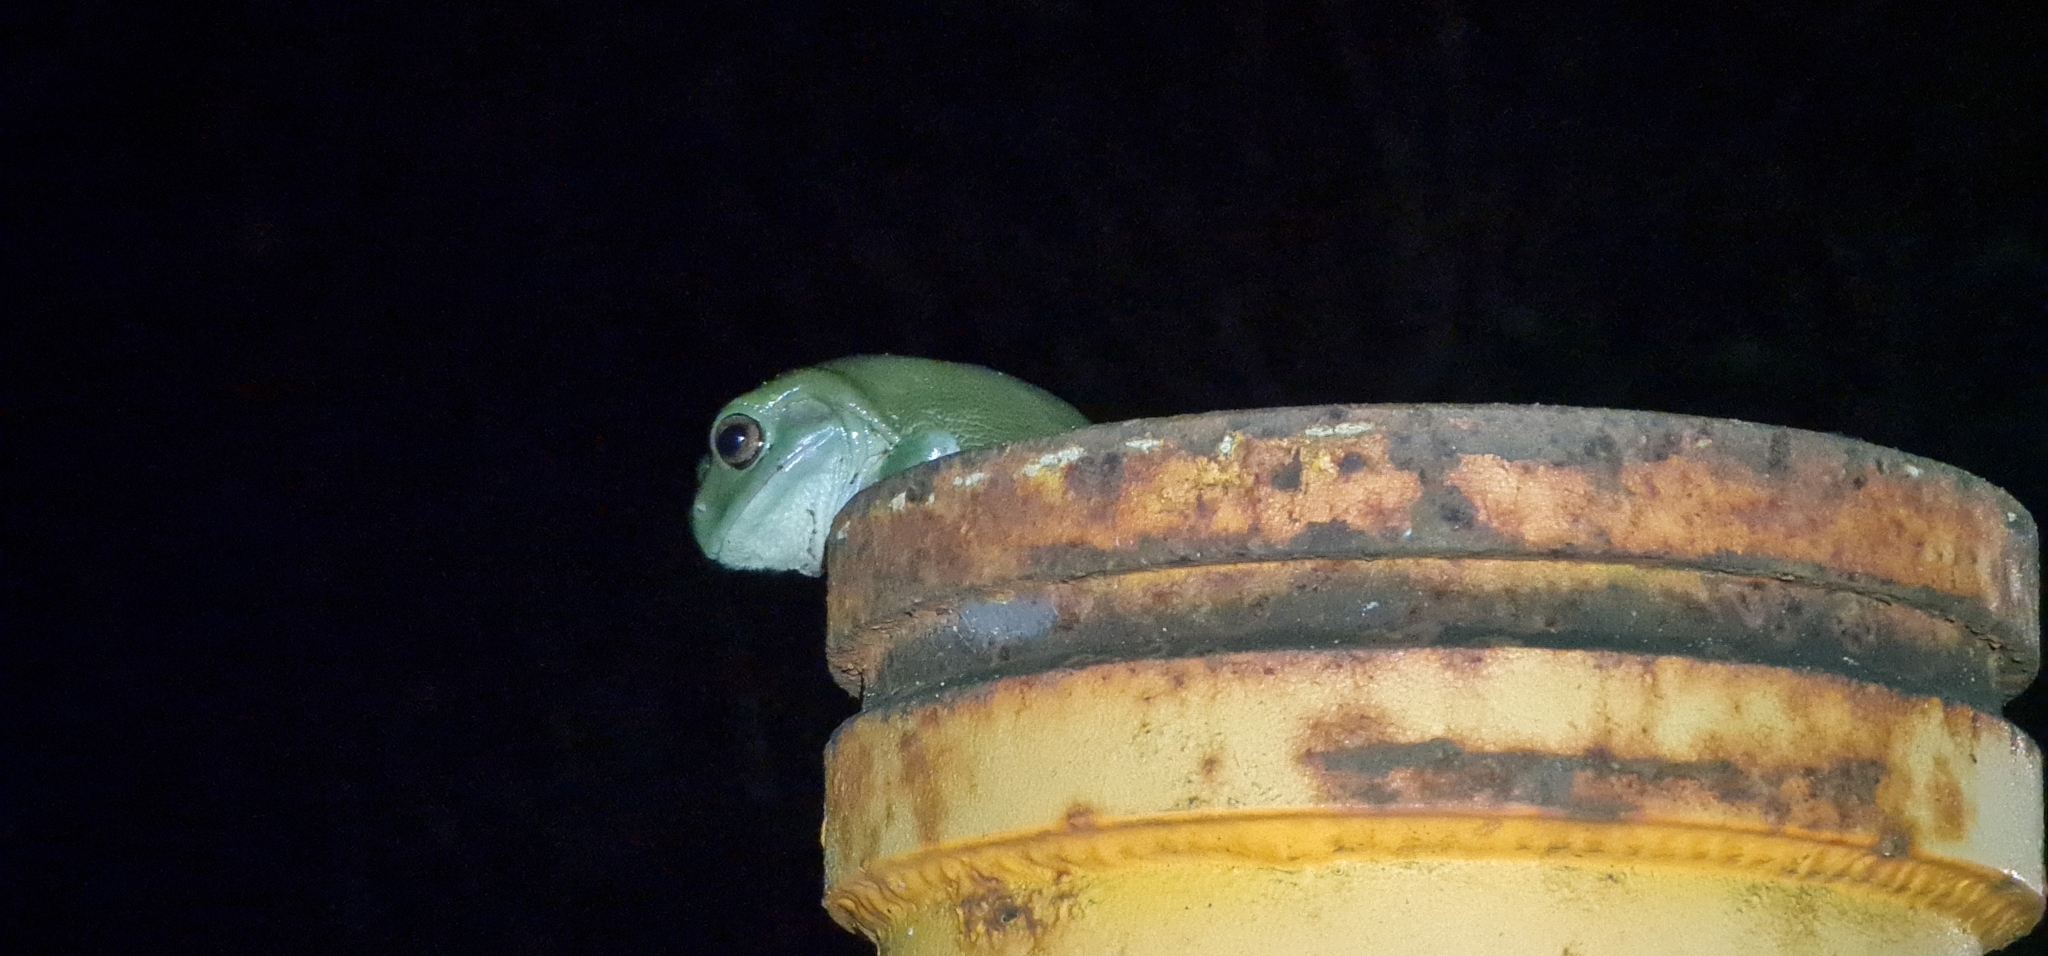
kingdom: Animalia
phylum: Chordata
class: Amphibia
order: Anura
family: Pelodryadidae
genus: Ranoidea
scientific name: Ranoidea caerulea
